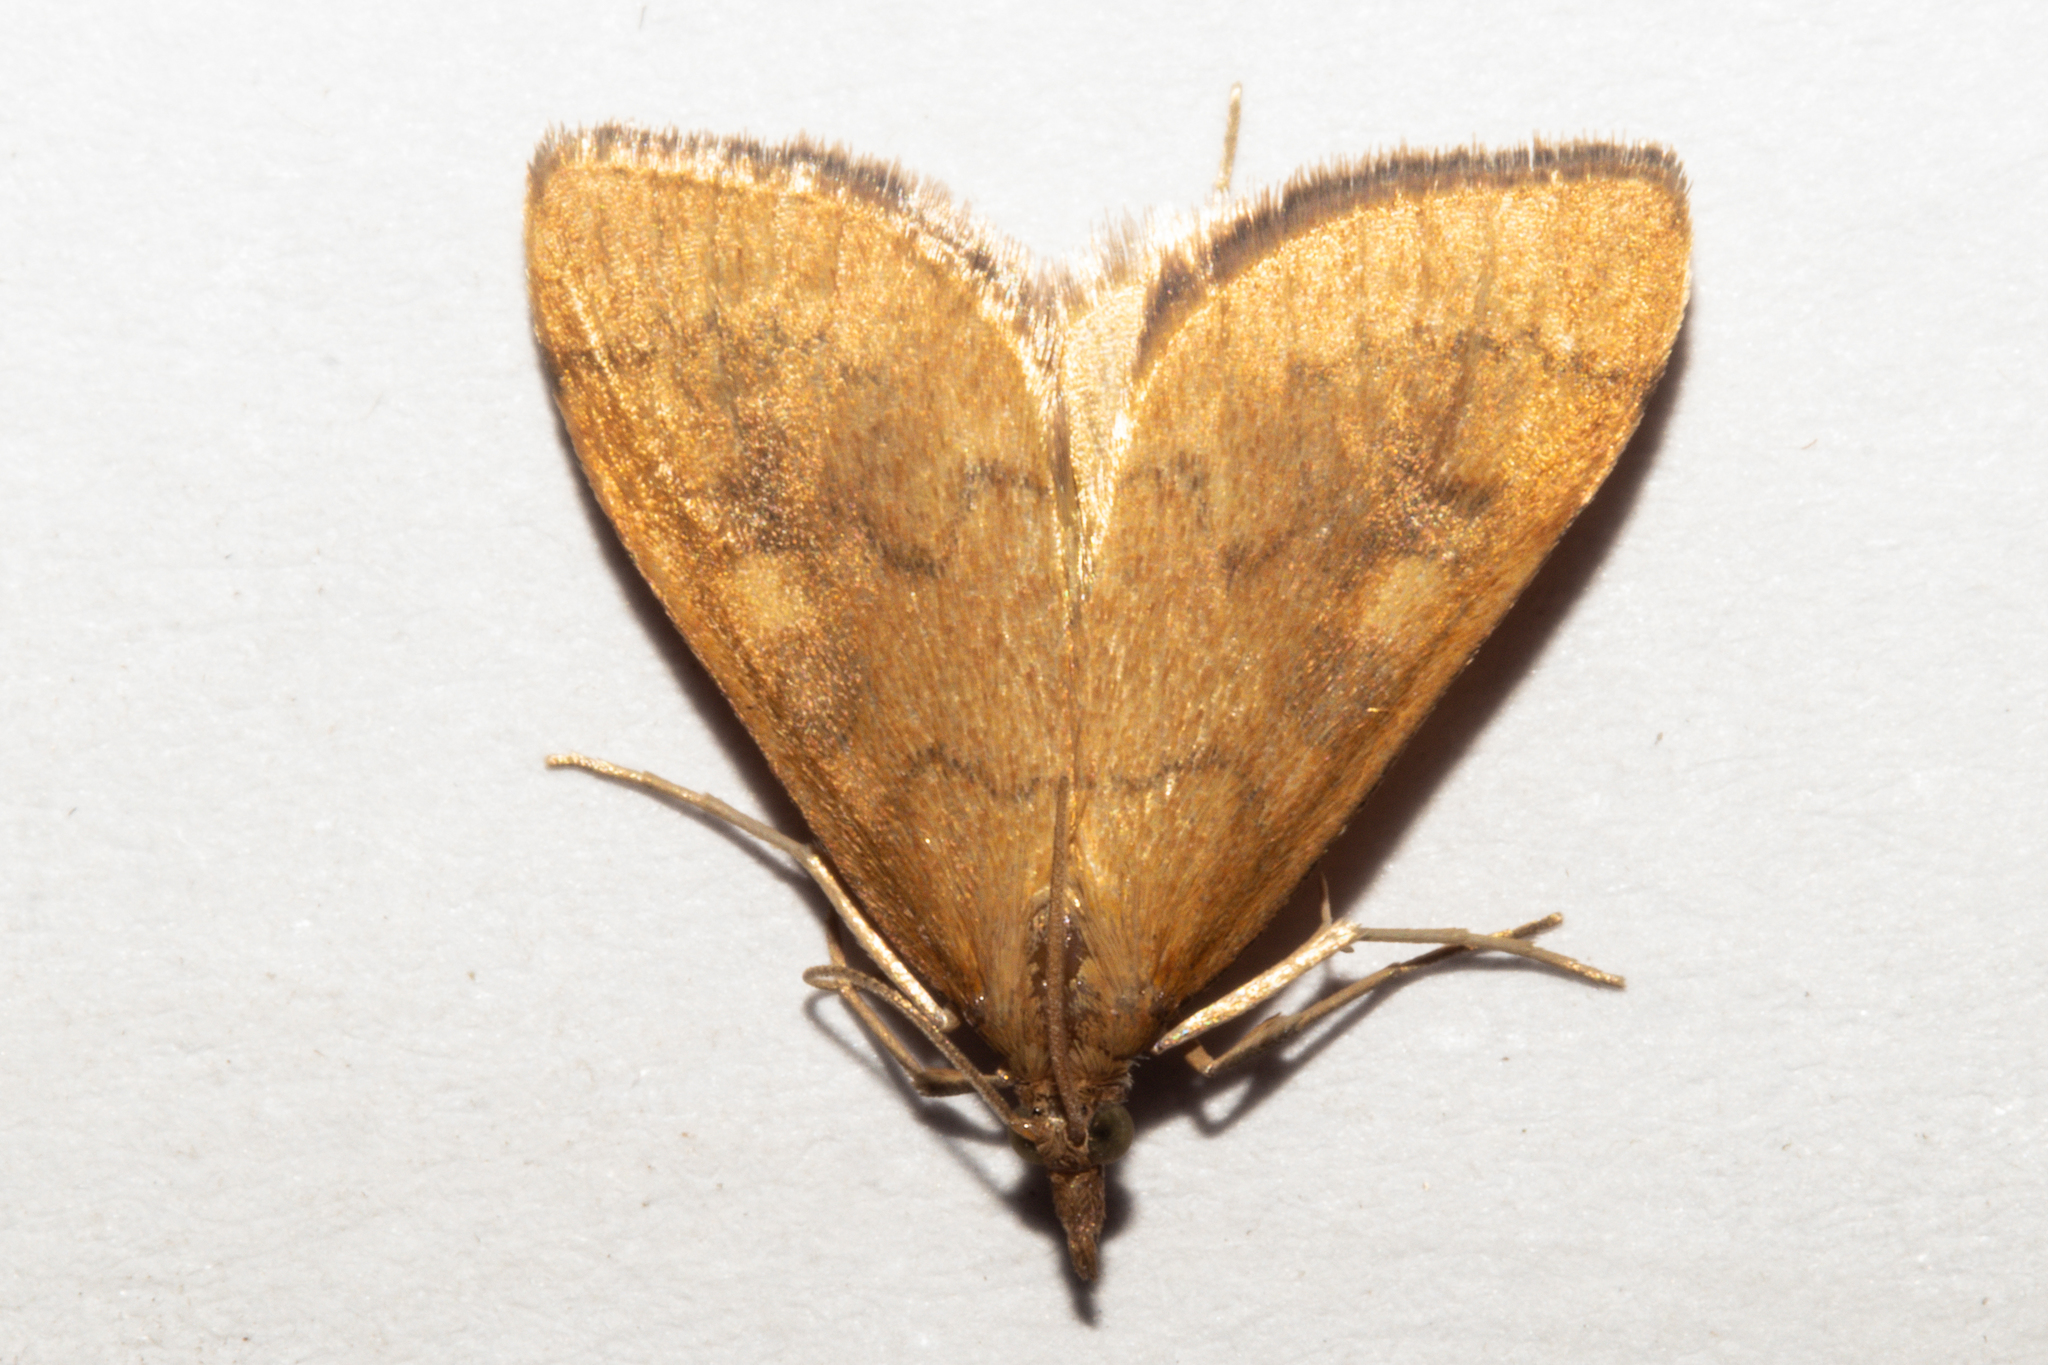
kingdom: Animalia
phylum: Arthropoda
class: Insecta
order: Lepidoptera
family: Crambidae
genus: Udea
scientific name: Udea Mnesictena flavidalis
